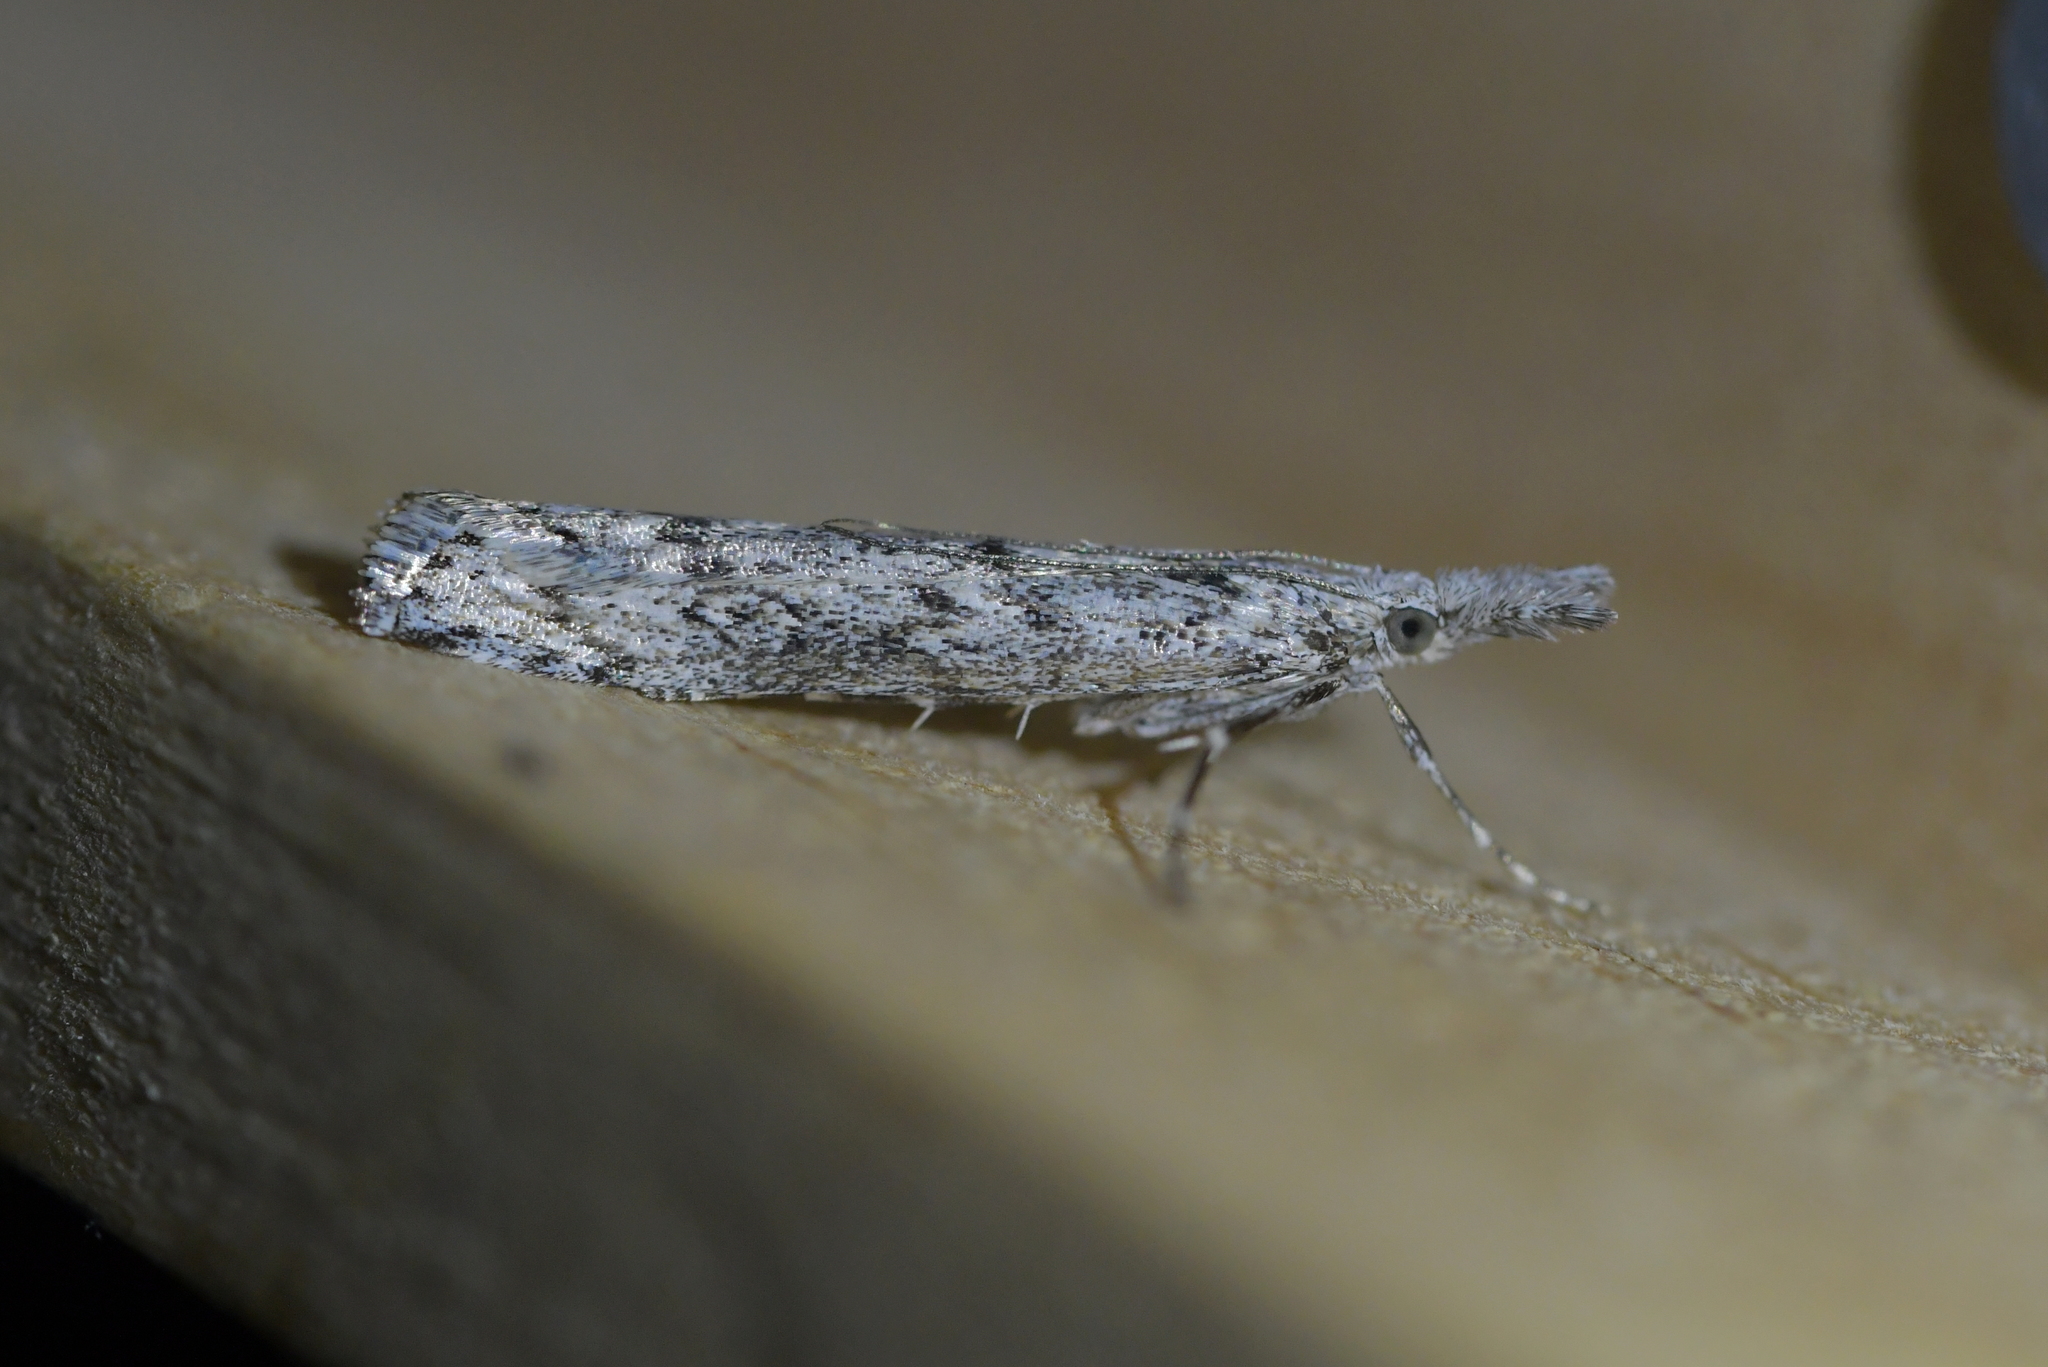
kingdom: Animalia
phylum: Arthropoda
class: Insecta
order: Lepidoptera
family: Crambidae
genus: Orocrambus
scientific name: Orocrambus cyclopicus
